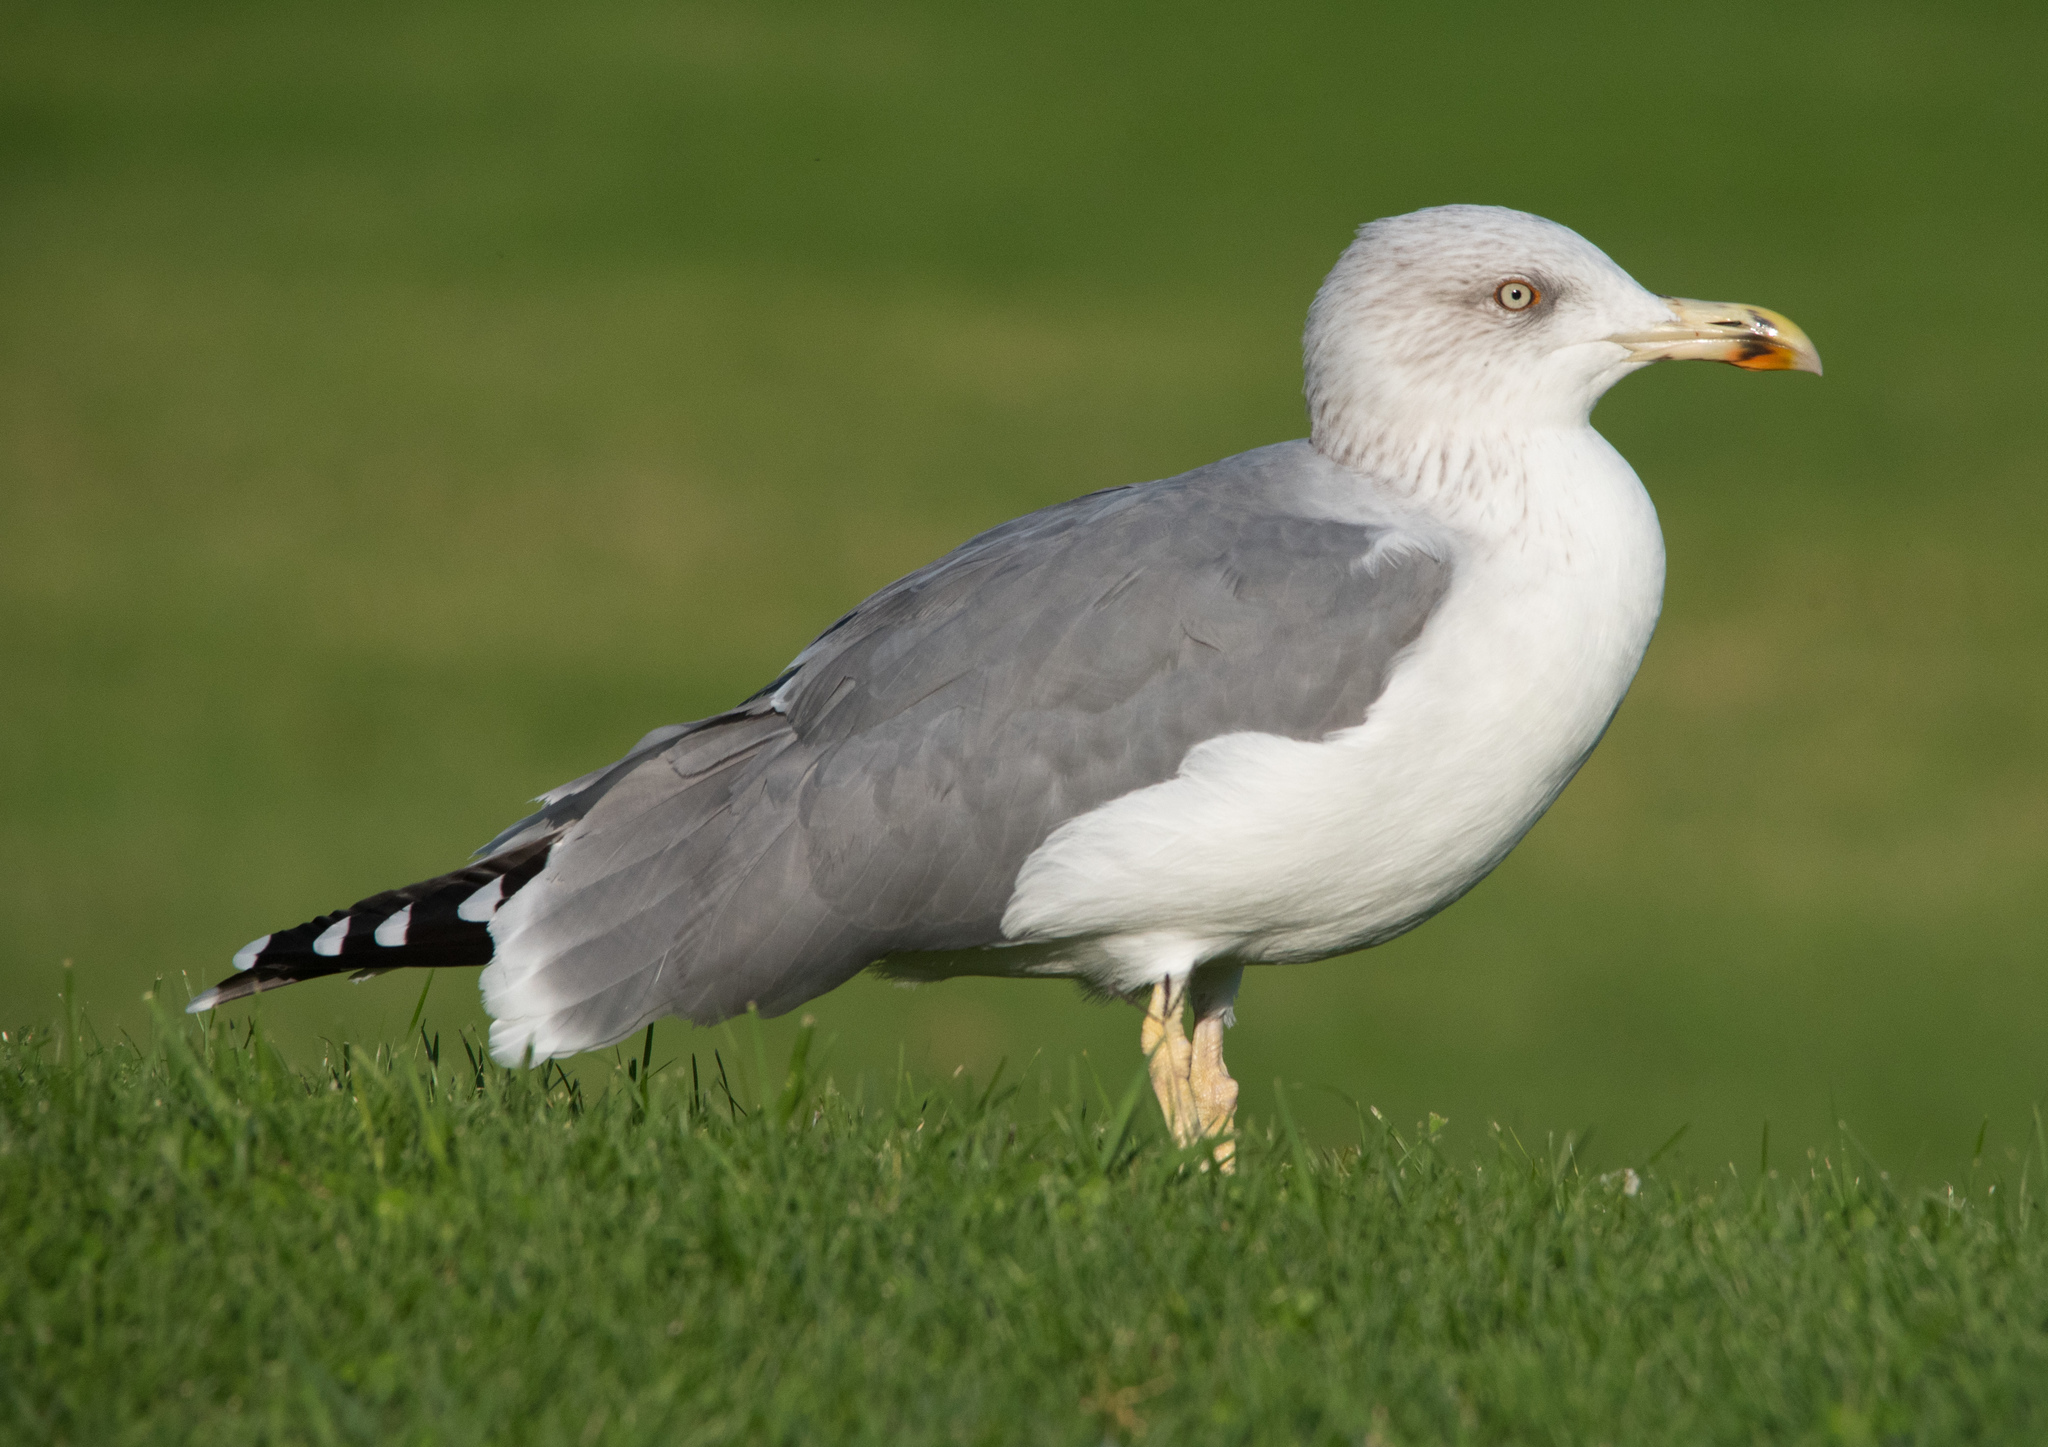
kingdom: Animalia
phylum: Chordata
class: Aves
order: Charadriiformes
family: Laridae
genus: Larus
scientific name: Larus michahellis
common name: Yellow-legged gull
